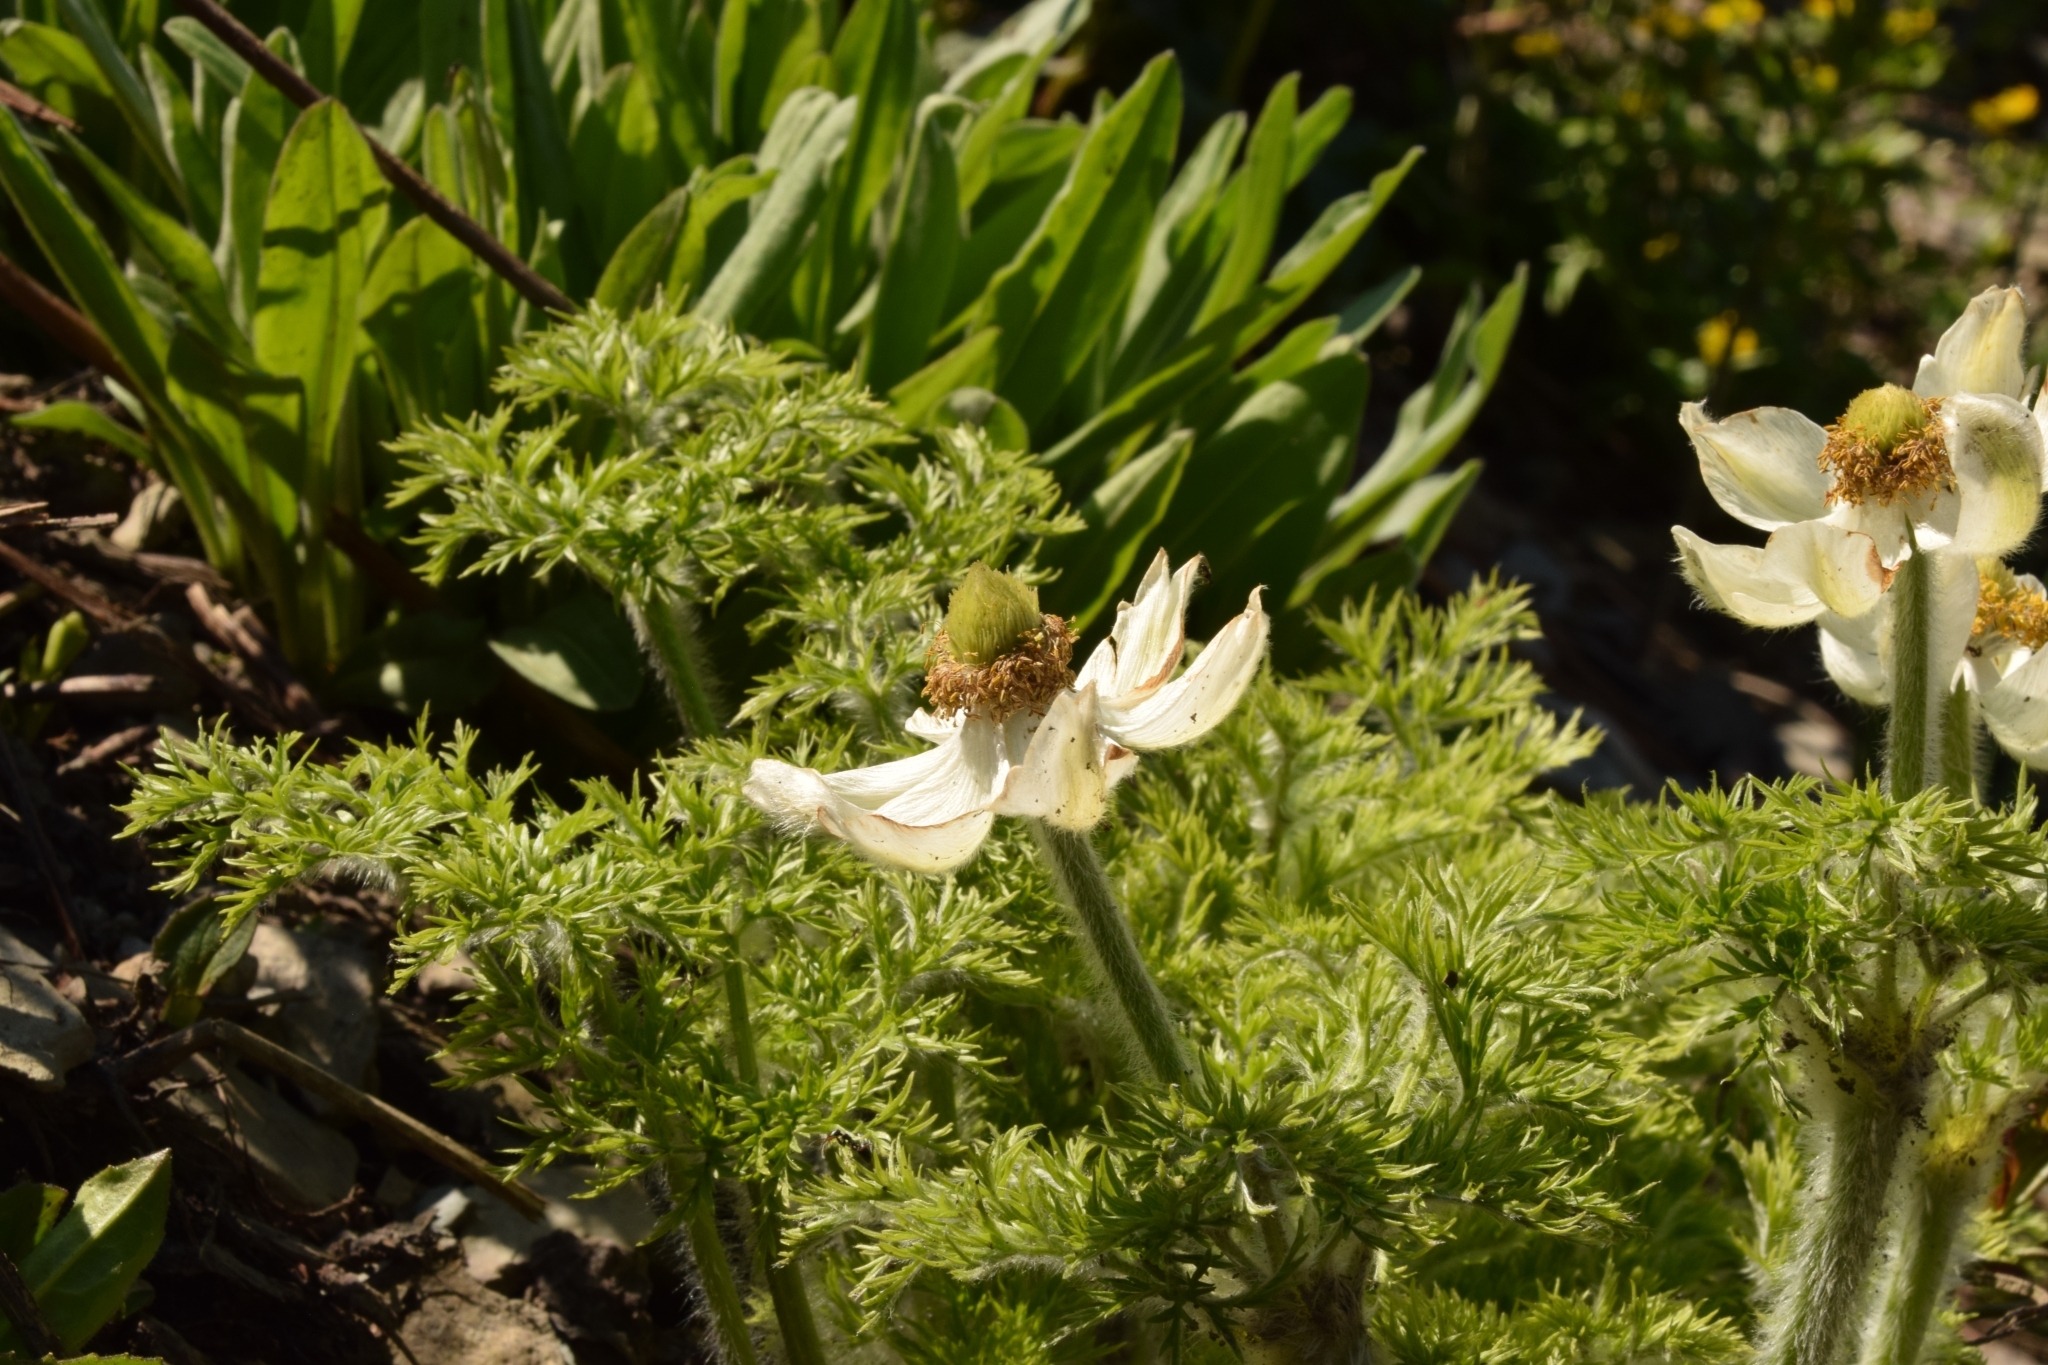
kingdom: Plantae
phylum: Tracheophyta
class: Magnoliopsida
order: Ranunculales
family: Ranunculaceae
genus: Pulsatilla
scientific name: Pulsatilla occidentalis
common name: Mountain pasqueflower
